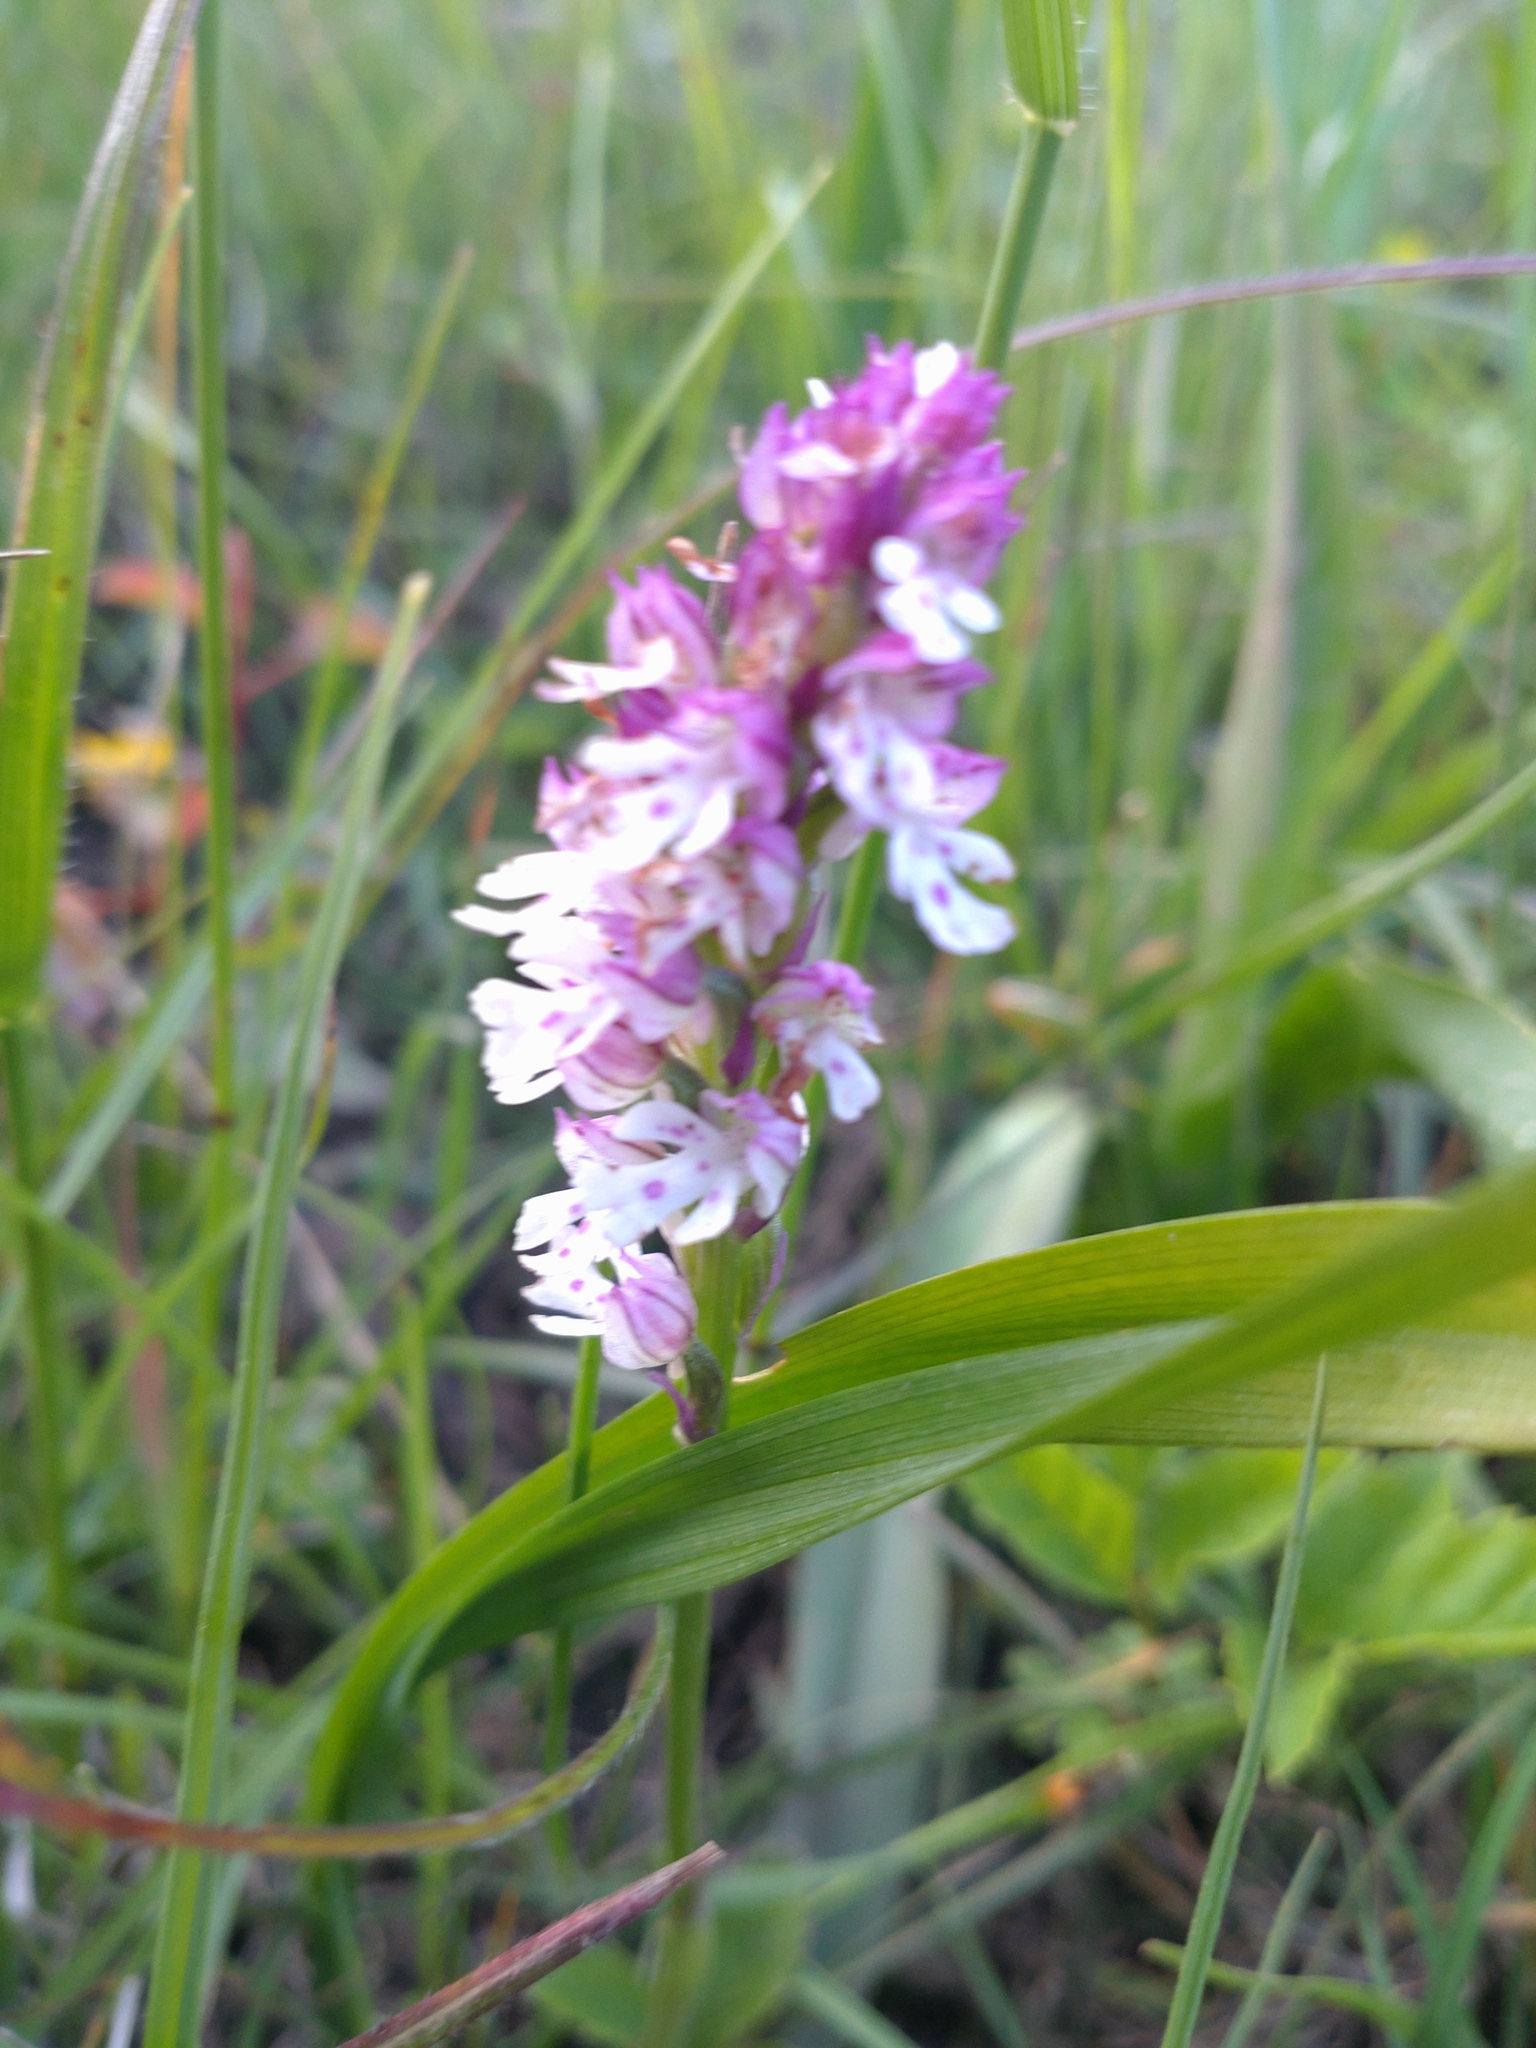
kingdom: Plantae
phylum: Tracheophyta
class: Liliopsida
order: Asparagales
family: Orchidaceae
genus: Neotinea
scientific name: Neotinea ustulata
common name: Burnt orchid
